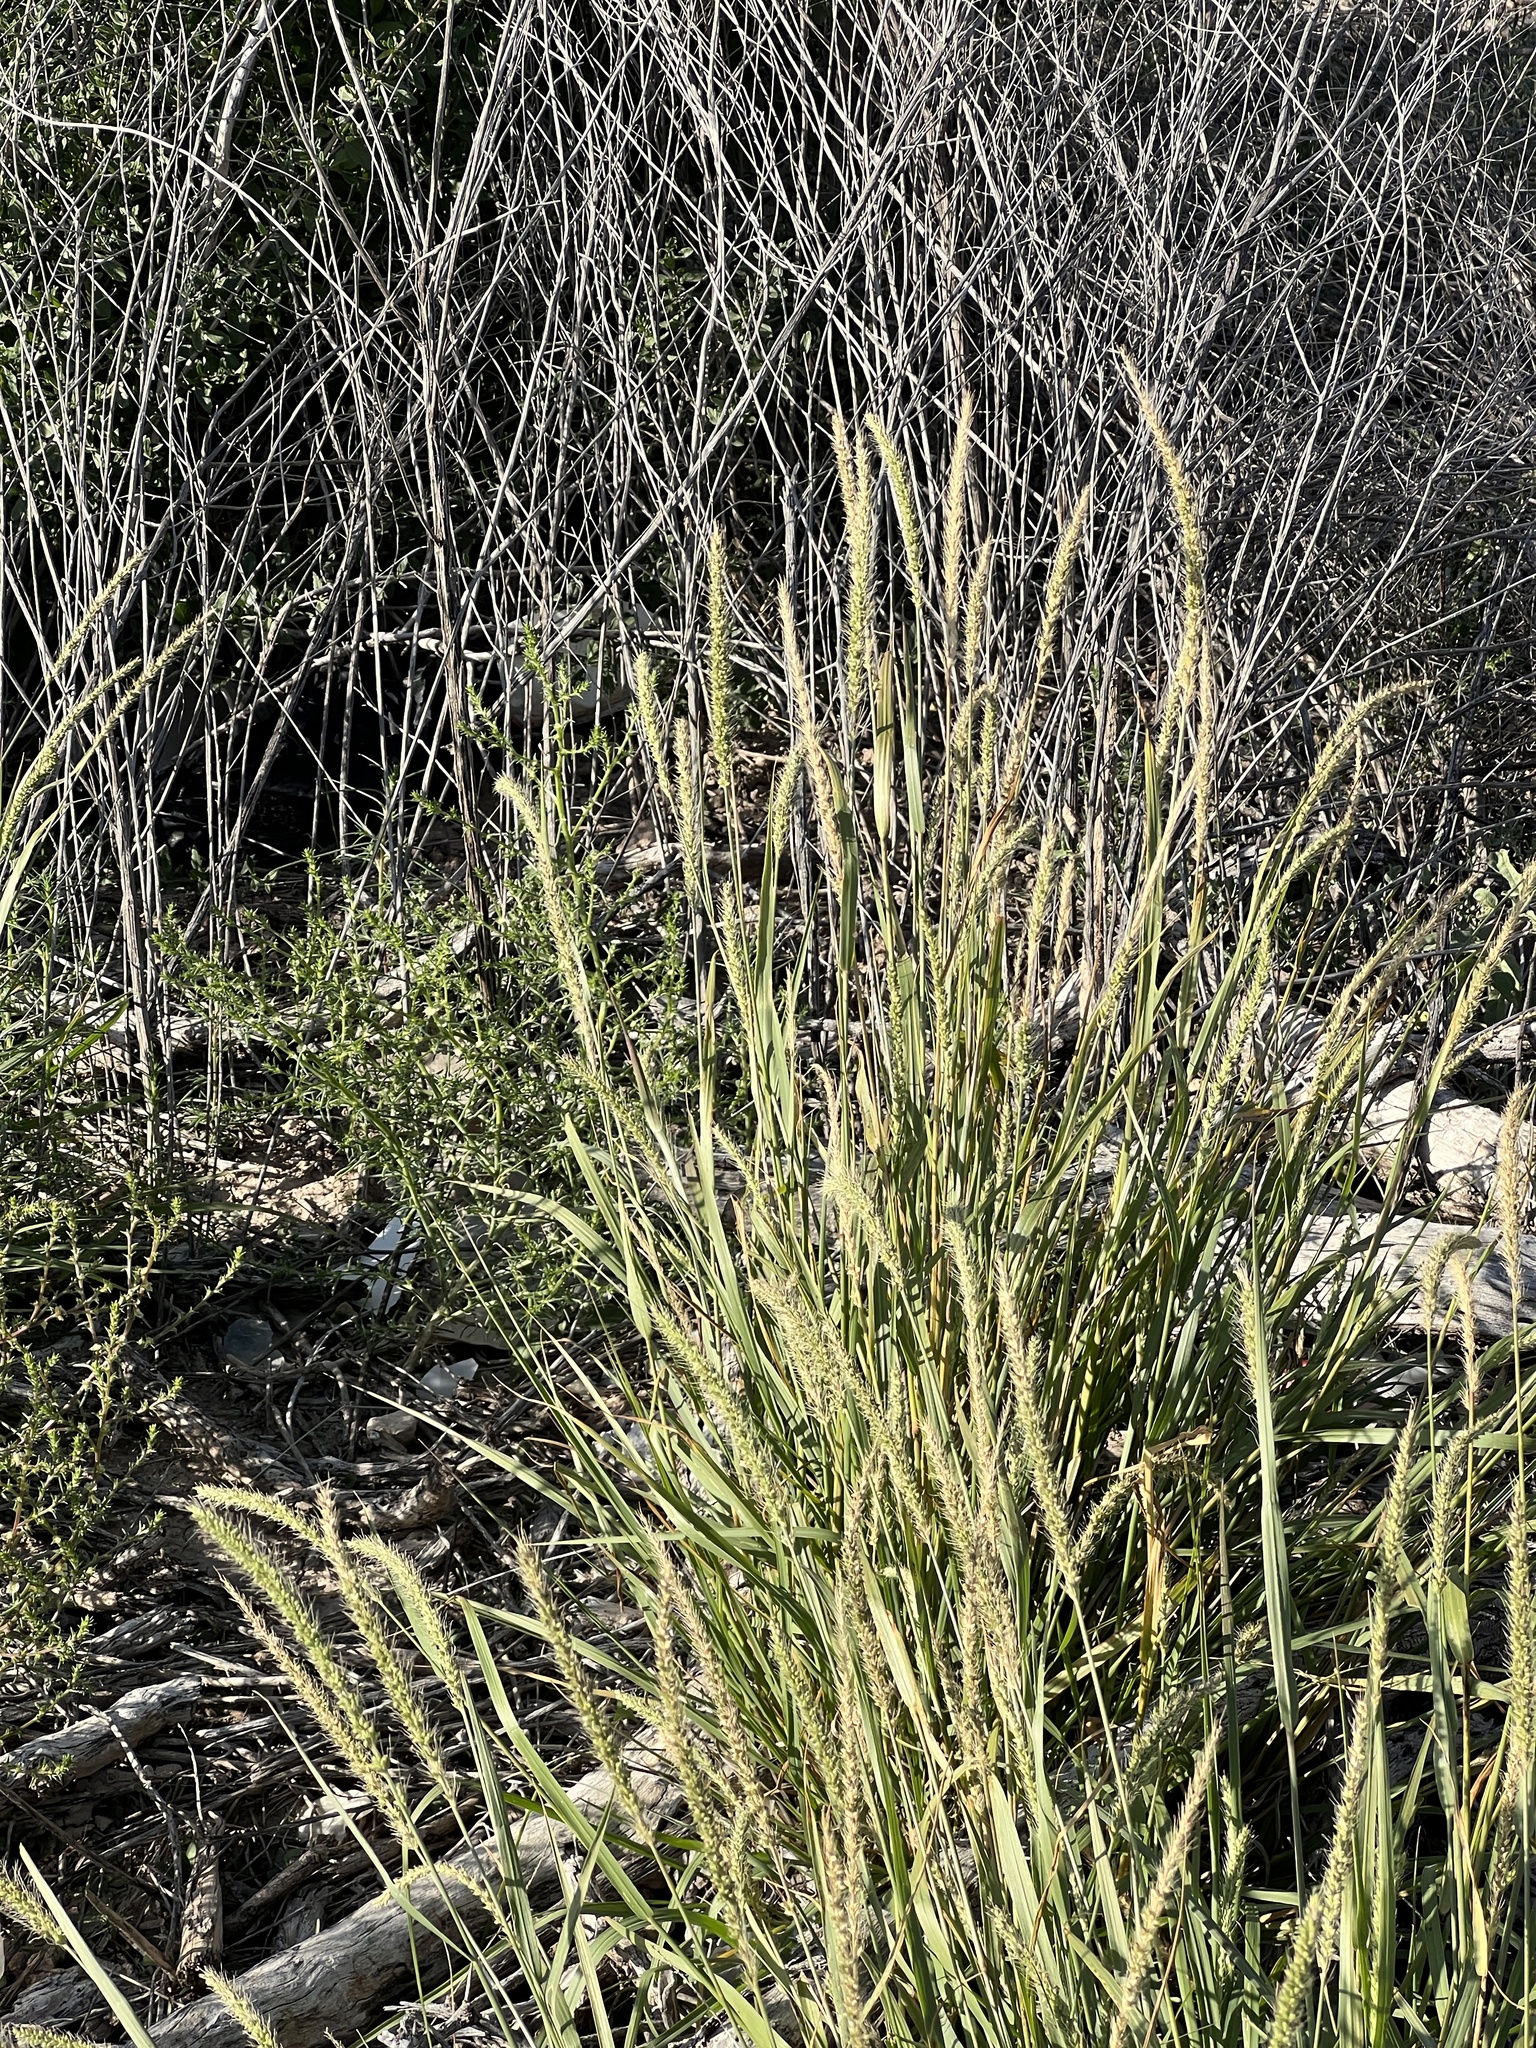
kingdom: Plantae
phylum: Tracheophyta
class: Liliopsida
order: Poales
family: Poaceae
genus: Setaria
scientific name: Setaria leucopila
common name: Plains bristle grass
